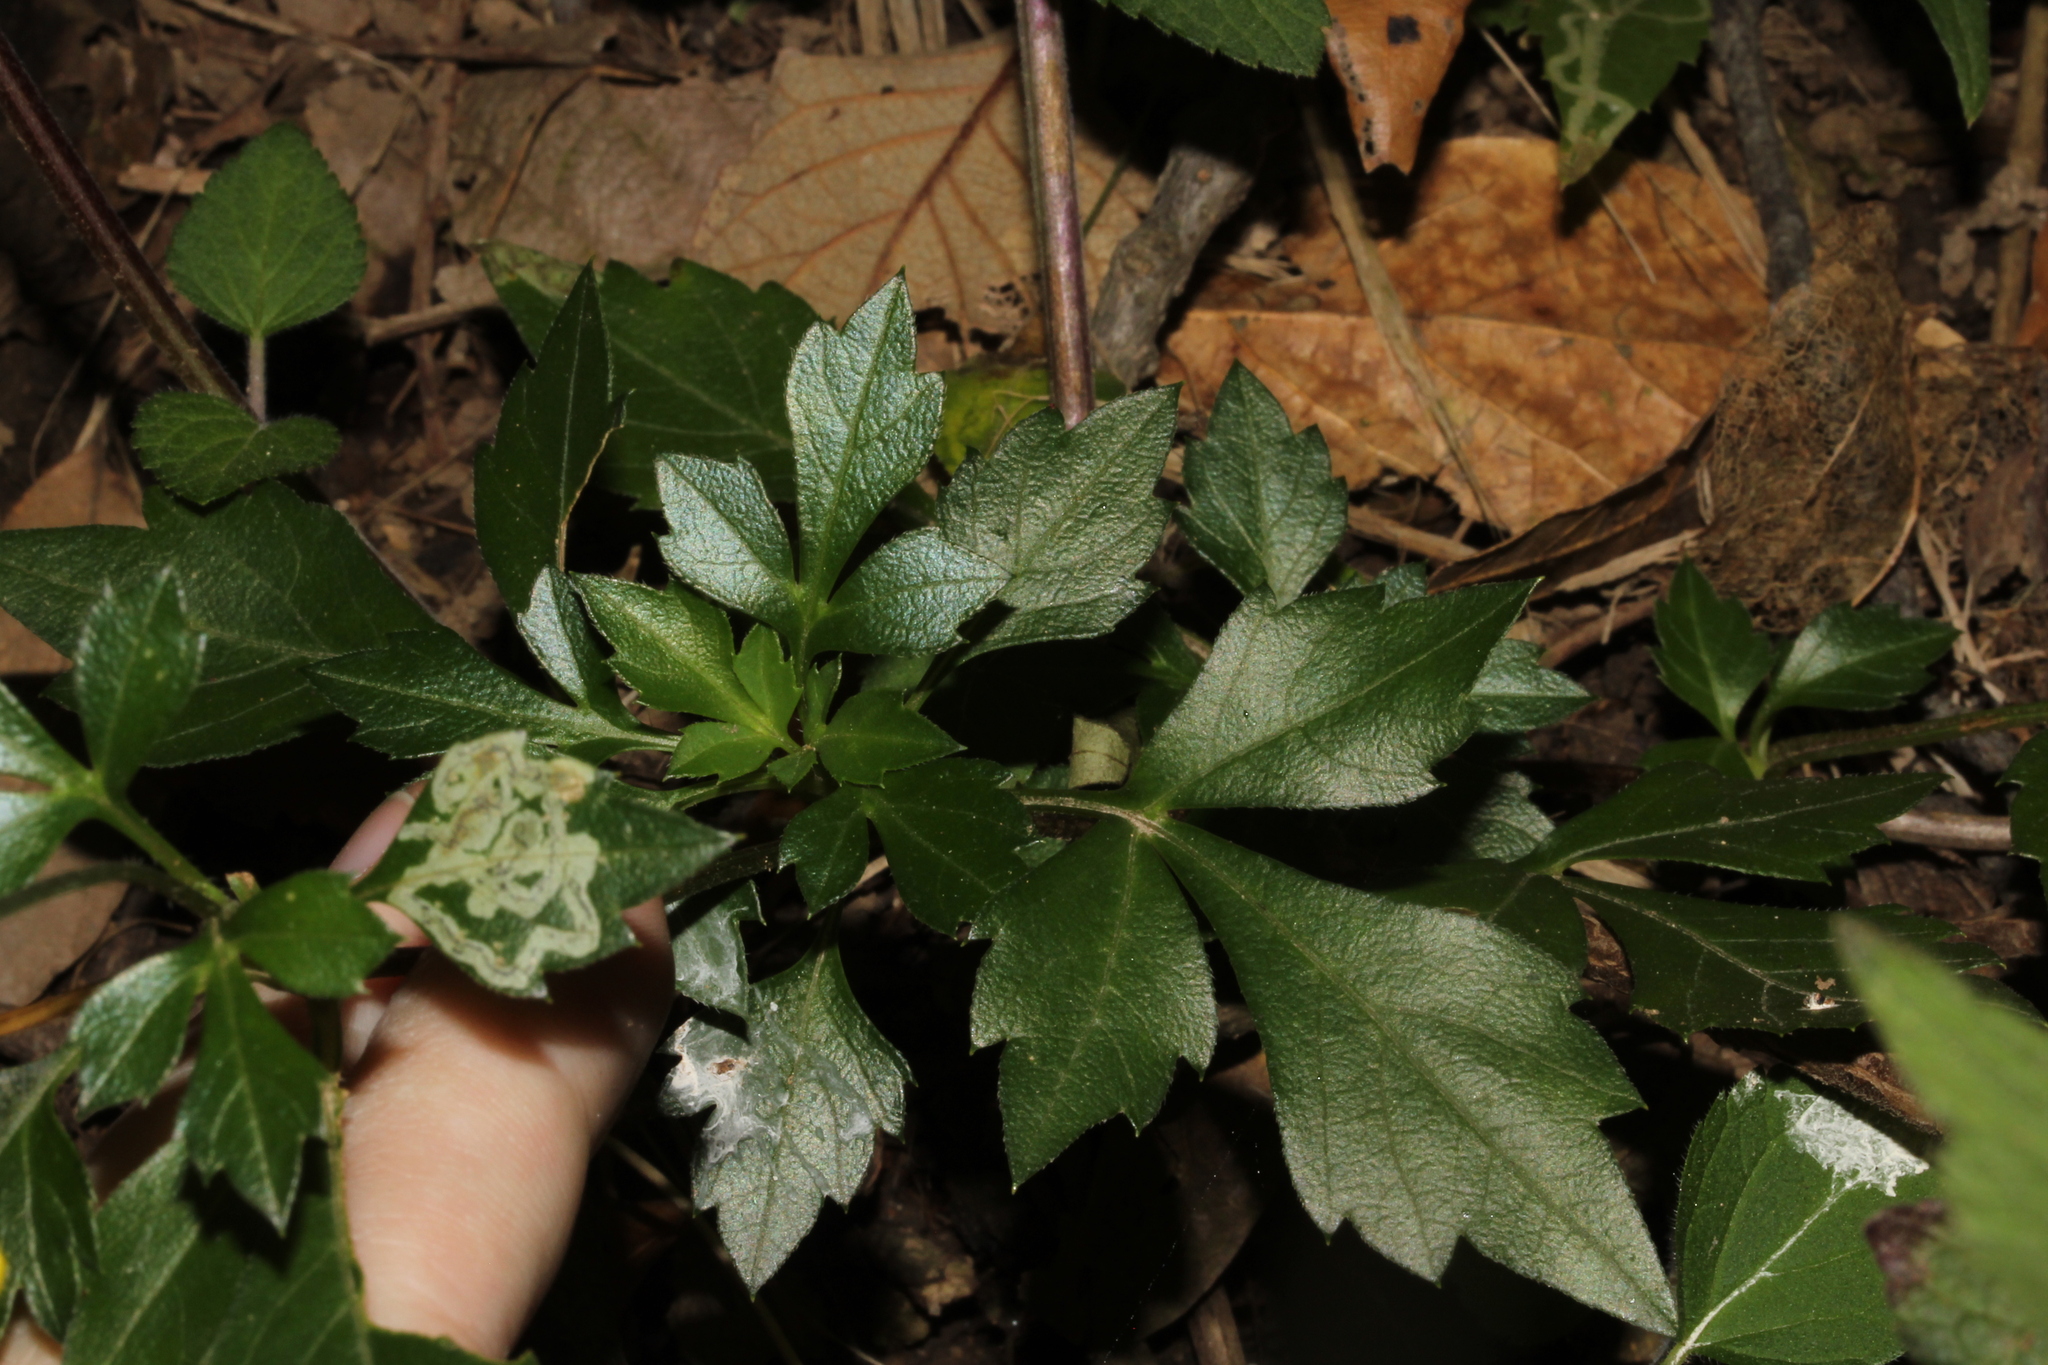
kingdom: Plantae
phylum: Tracheophyta
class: Magnoliopsida
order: Asterales
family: Asteraceae
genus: Bidens
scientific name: Bidens ostruthioides
